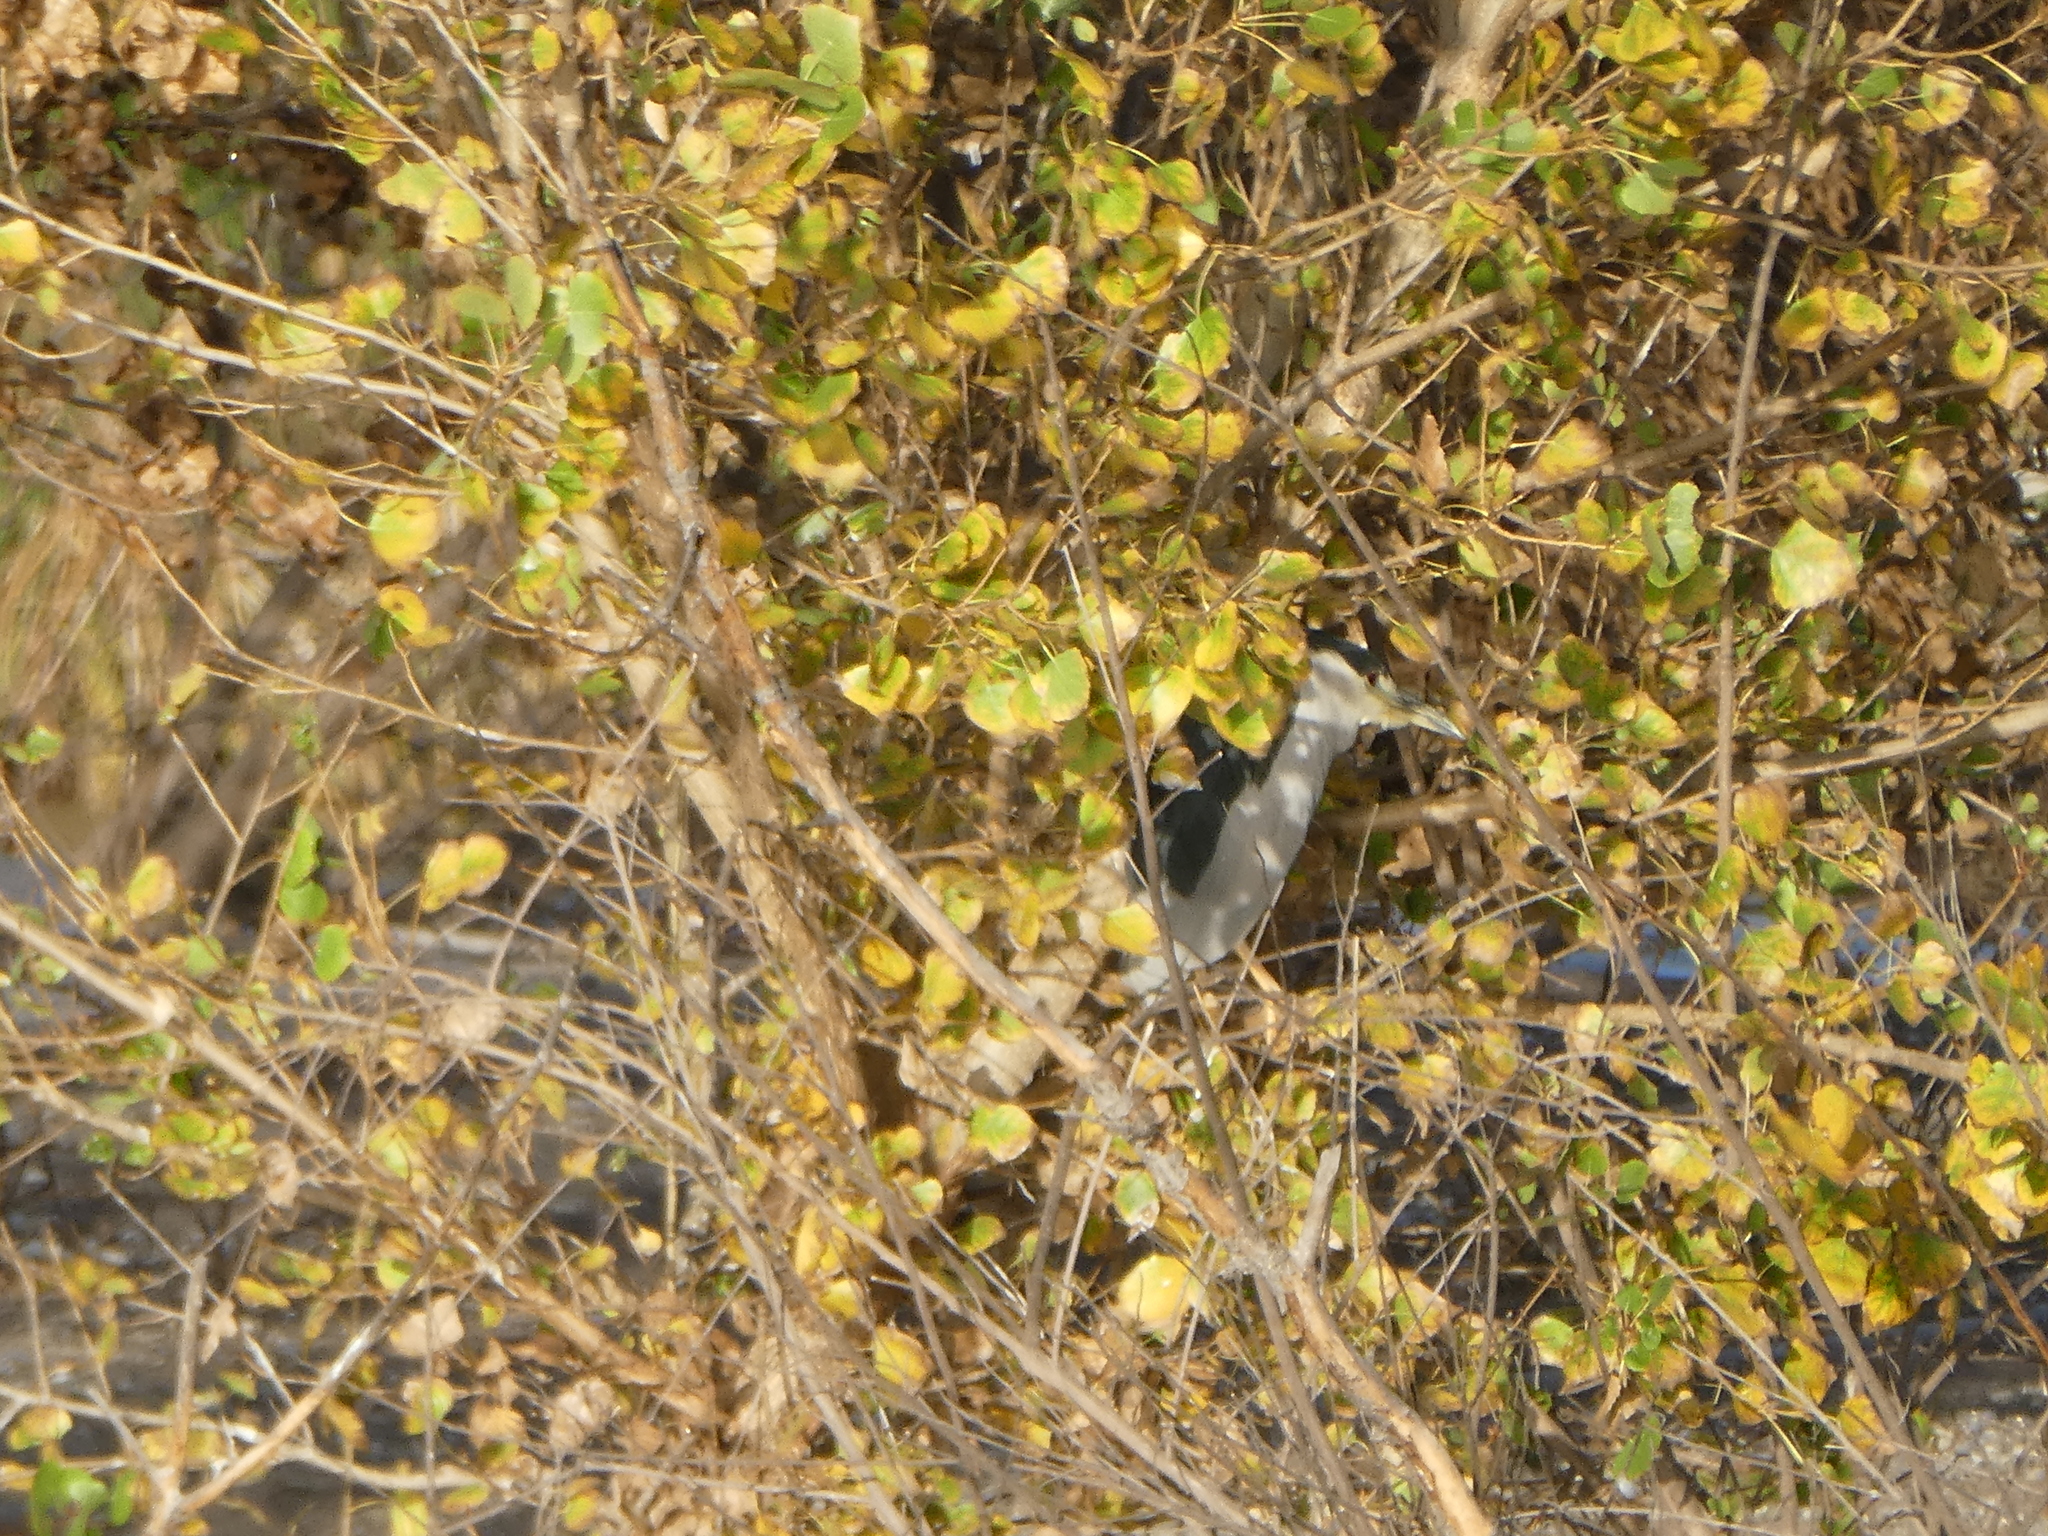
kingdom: Animalia
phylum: Chordata
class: Aves
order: Pelecaniformes
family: Ardeidae
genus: Nycticorax
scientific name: Nycticorax nycticorax
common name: Black-crowned night heron
